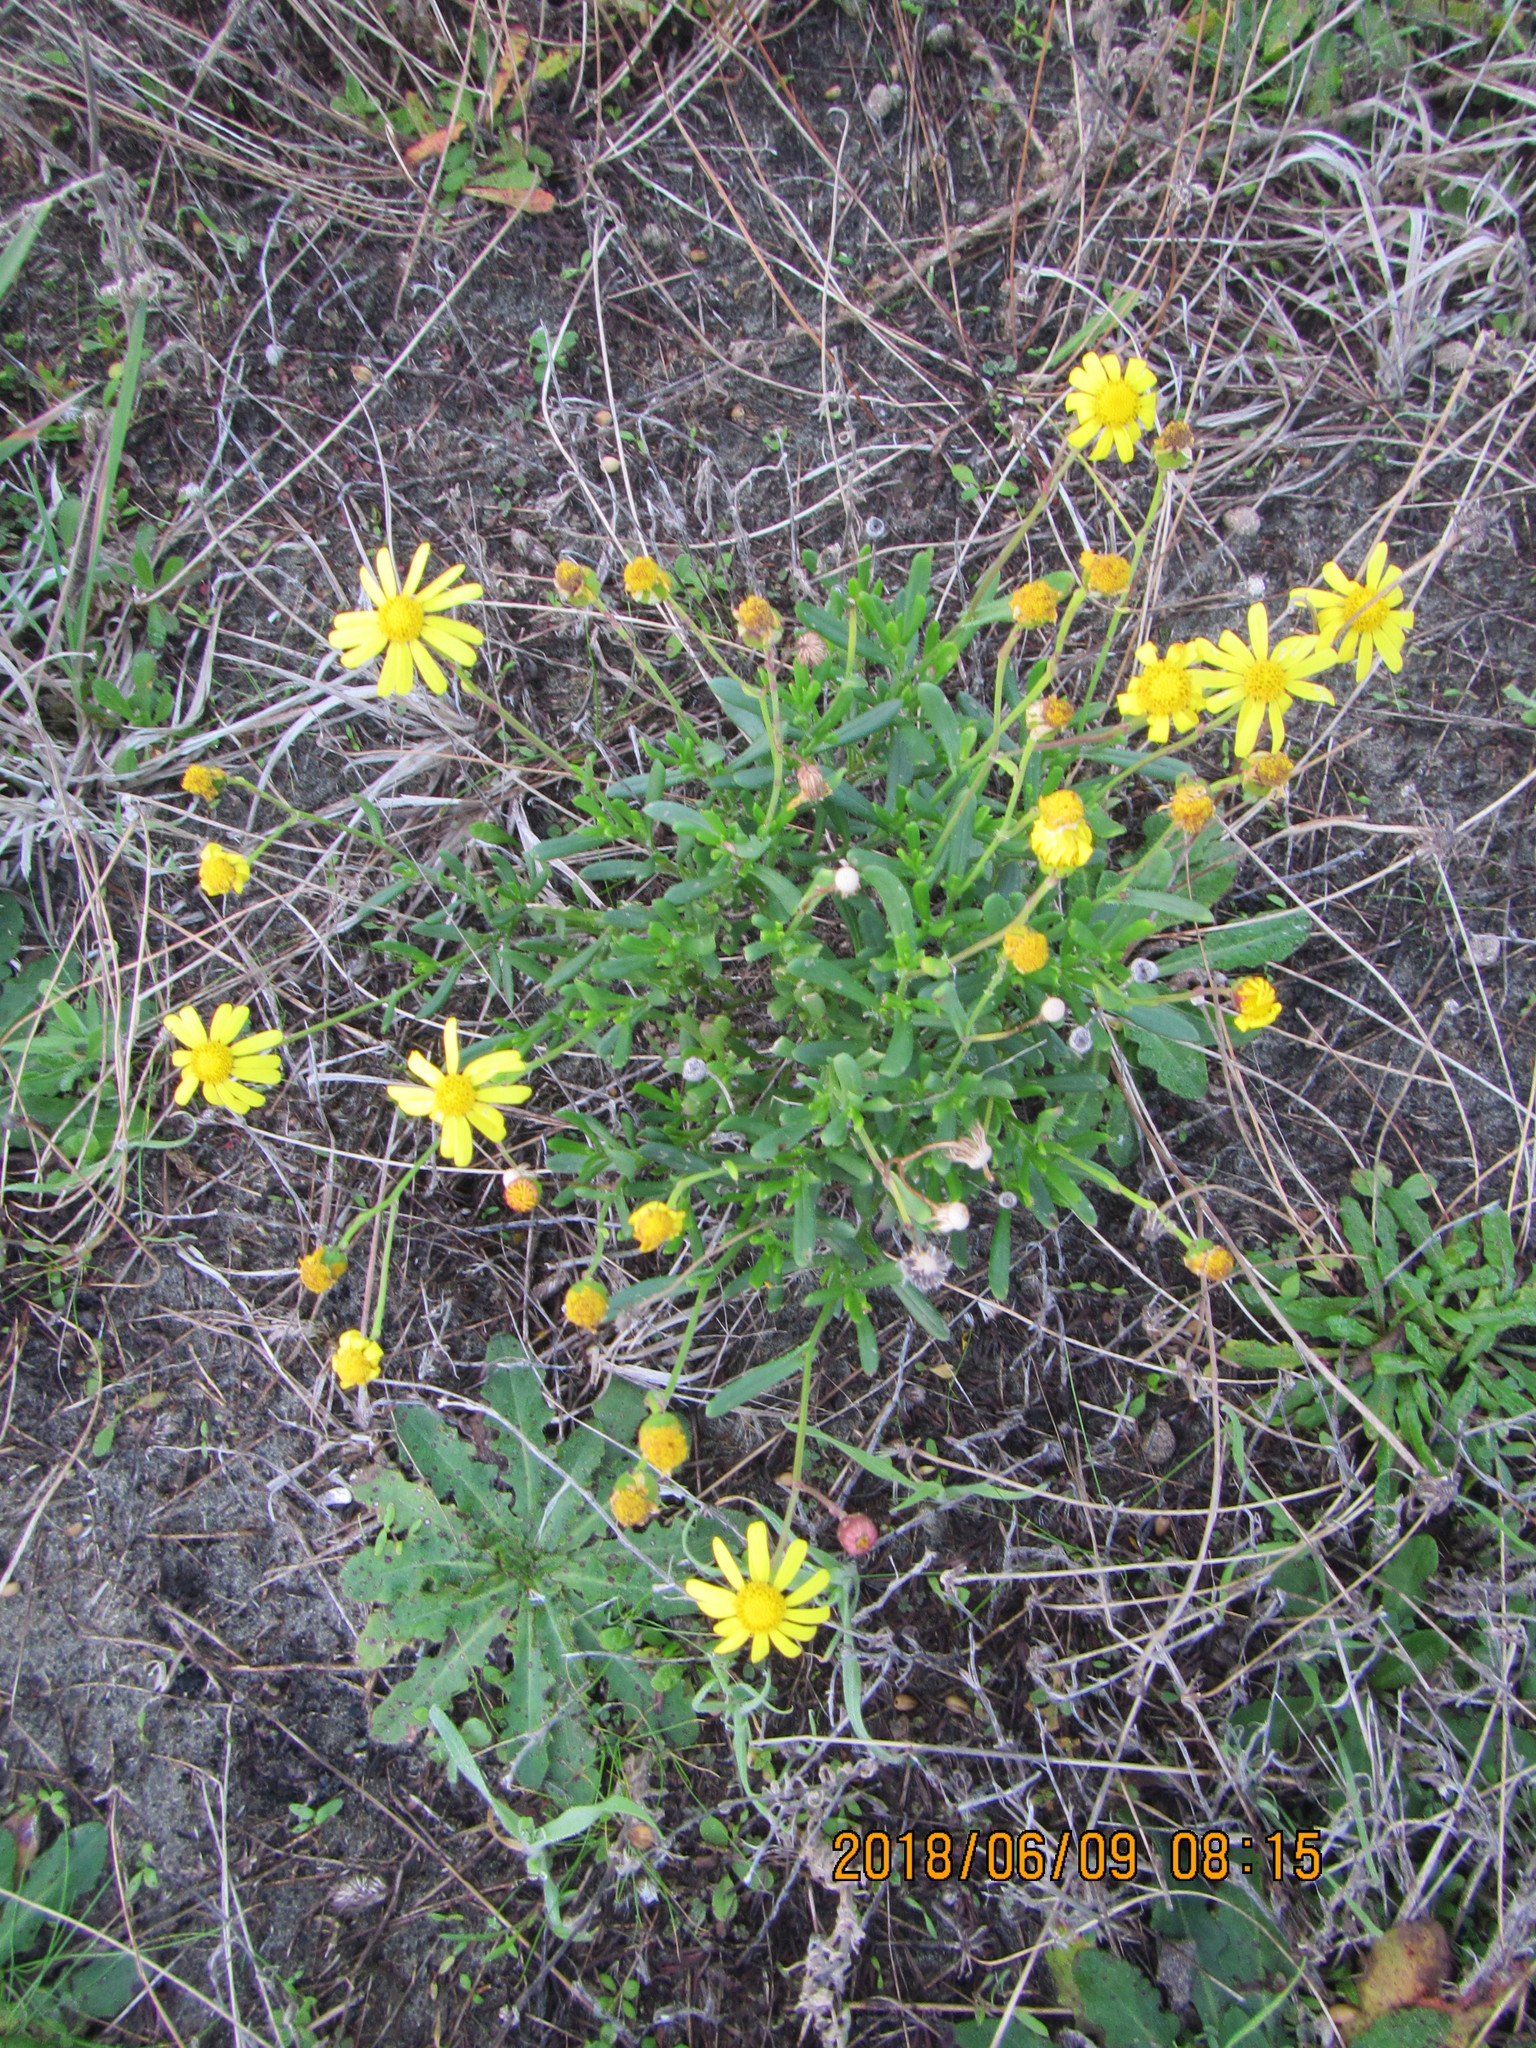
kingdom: Plantae
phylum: Tracheophyta
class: Magnoliopsida
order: Asterales
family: Asteraceae
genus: Senecio
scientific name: Senecio skirrhodon
